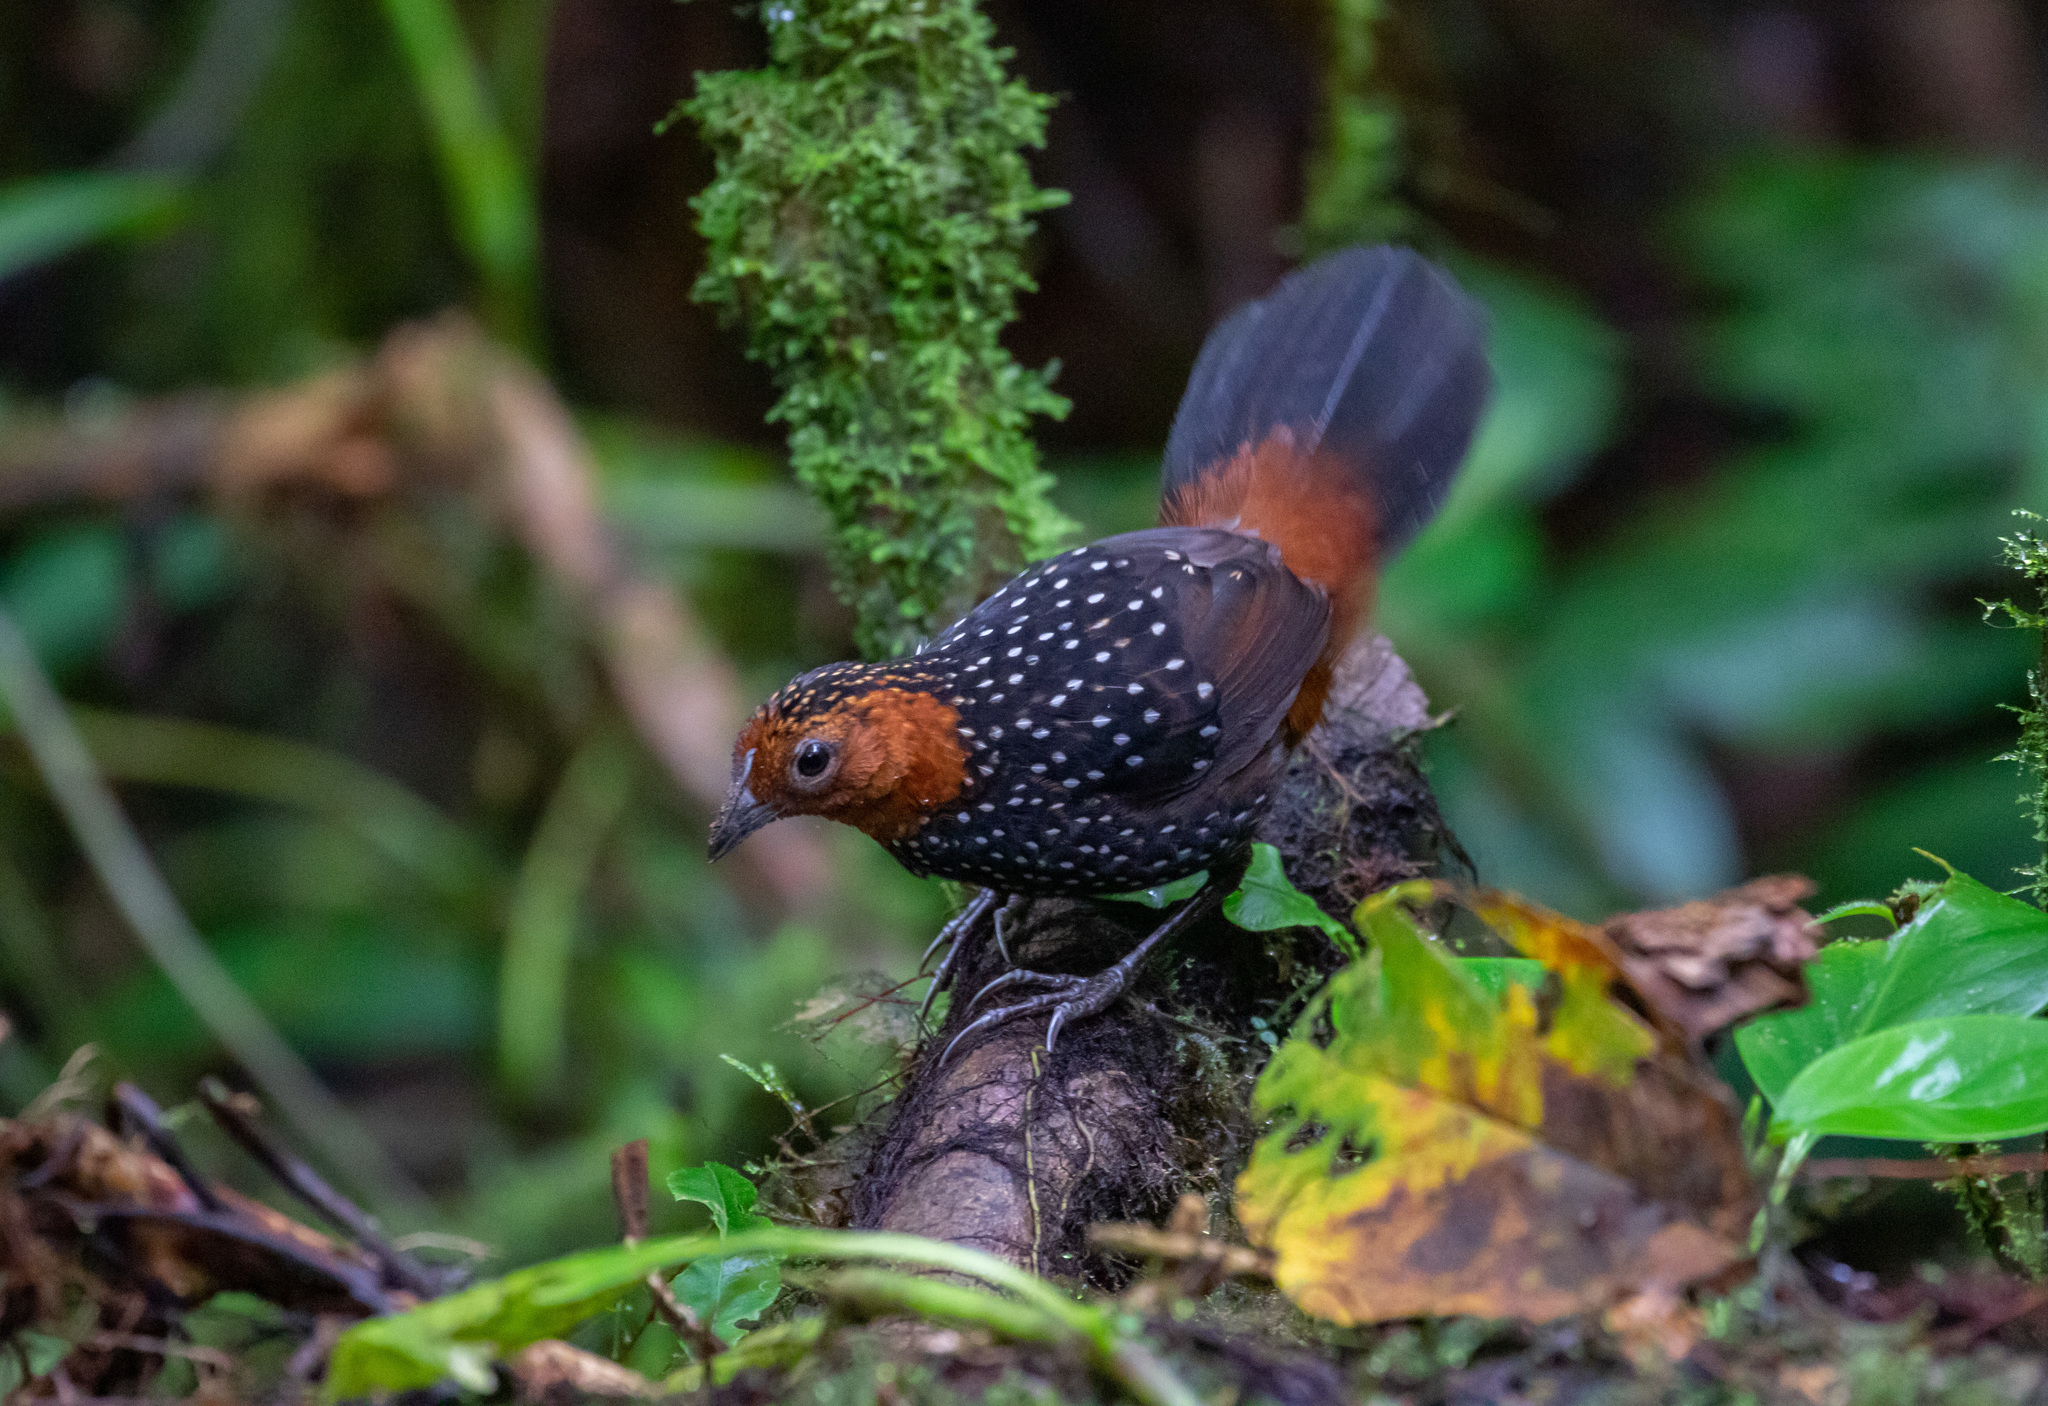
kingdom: Animalia
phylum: Chordata
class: Aves
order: Passeriformes
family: Rhinocryptidae
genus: Acropternis
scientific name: Acropternis orthonyx
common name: Ocellated tapaculo
